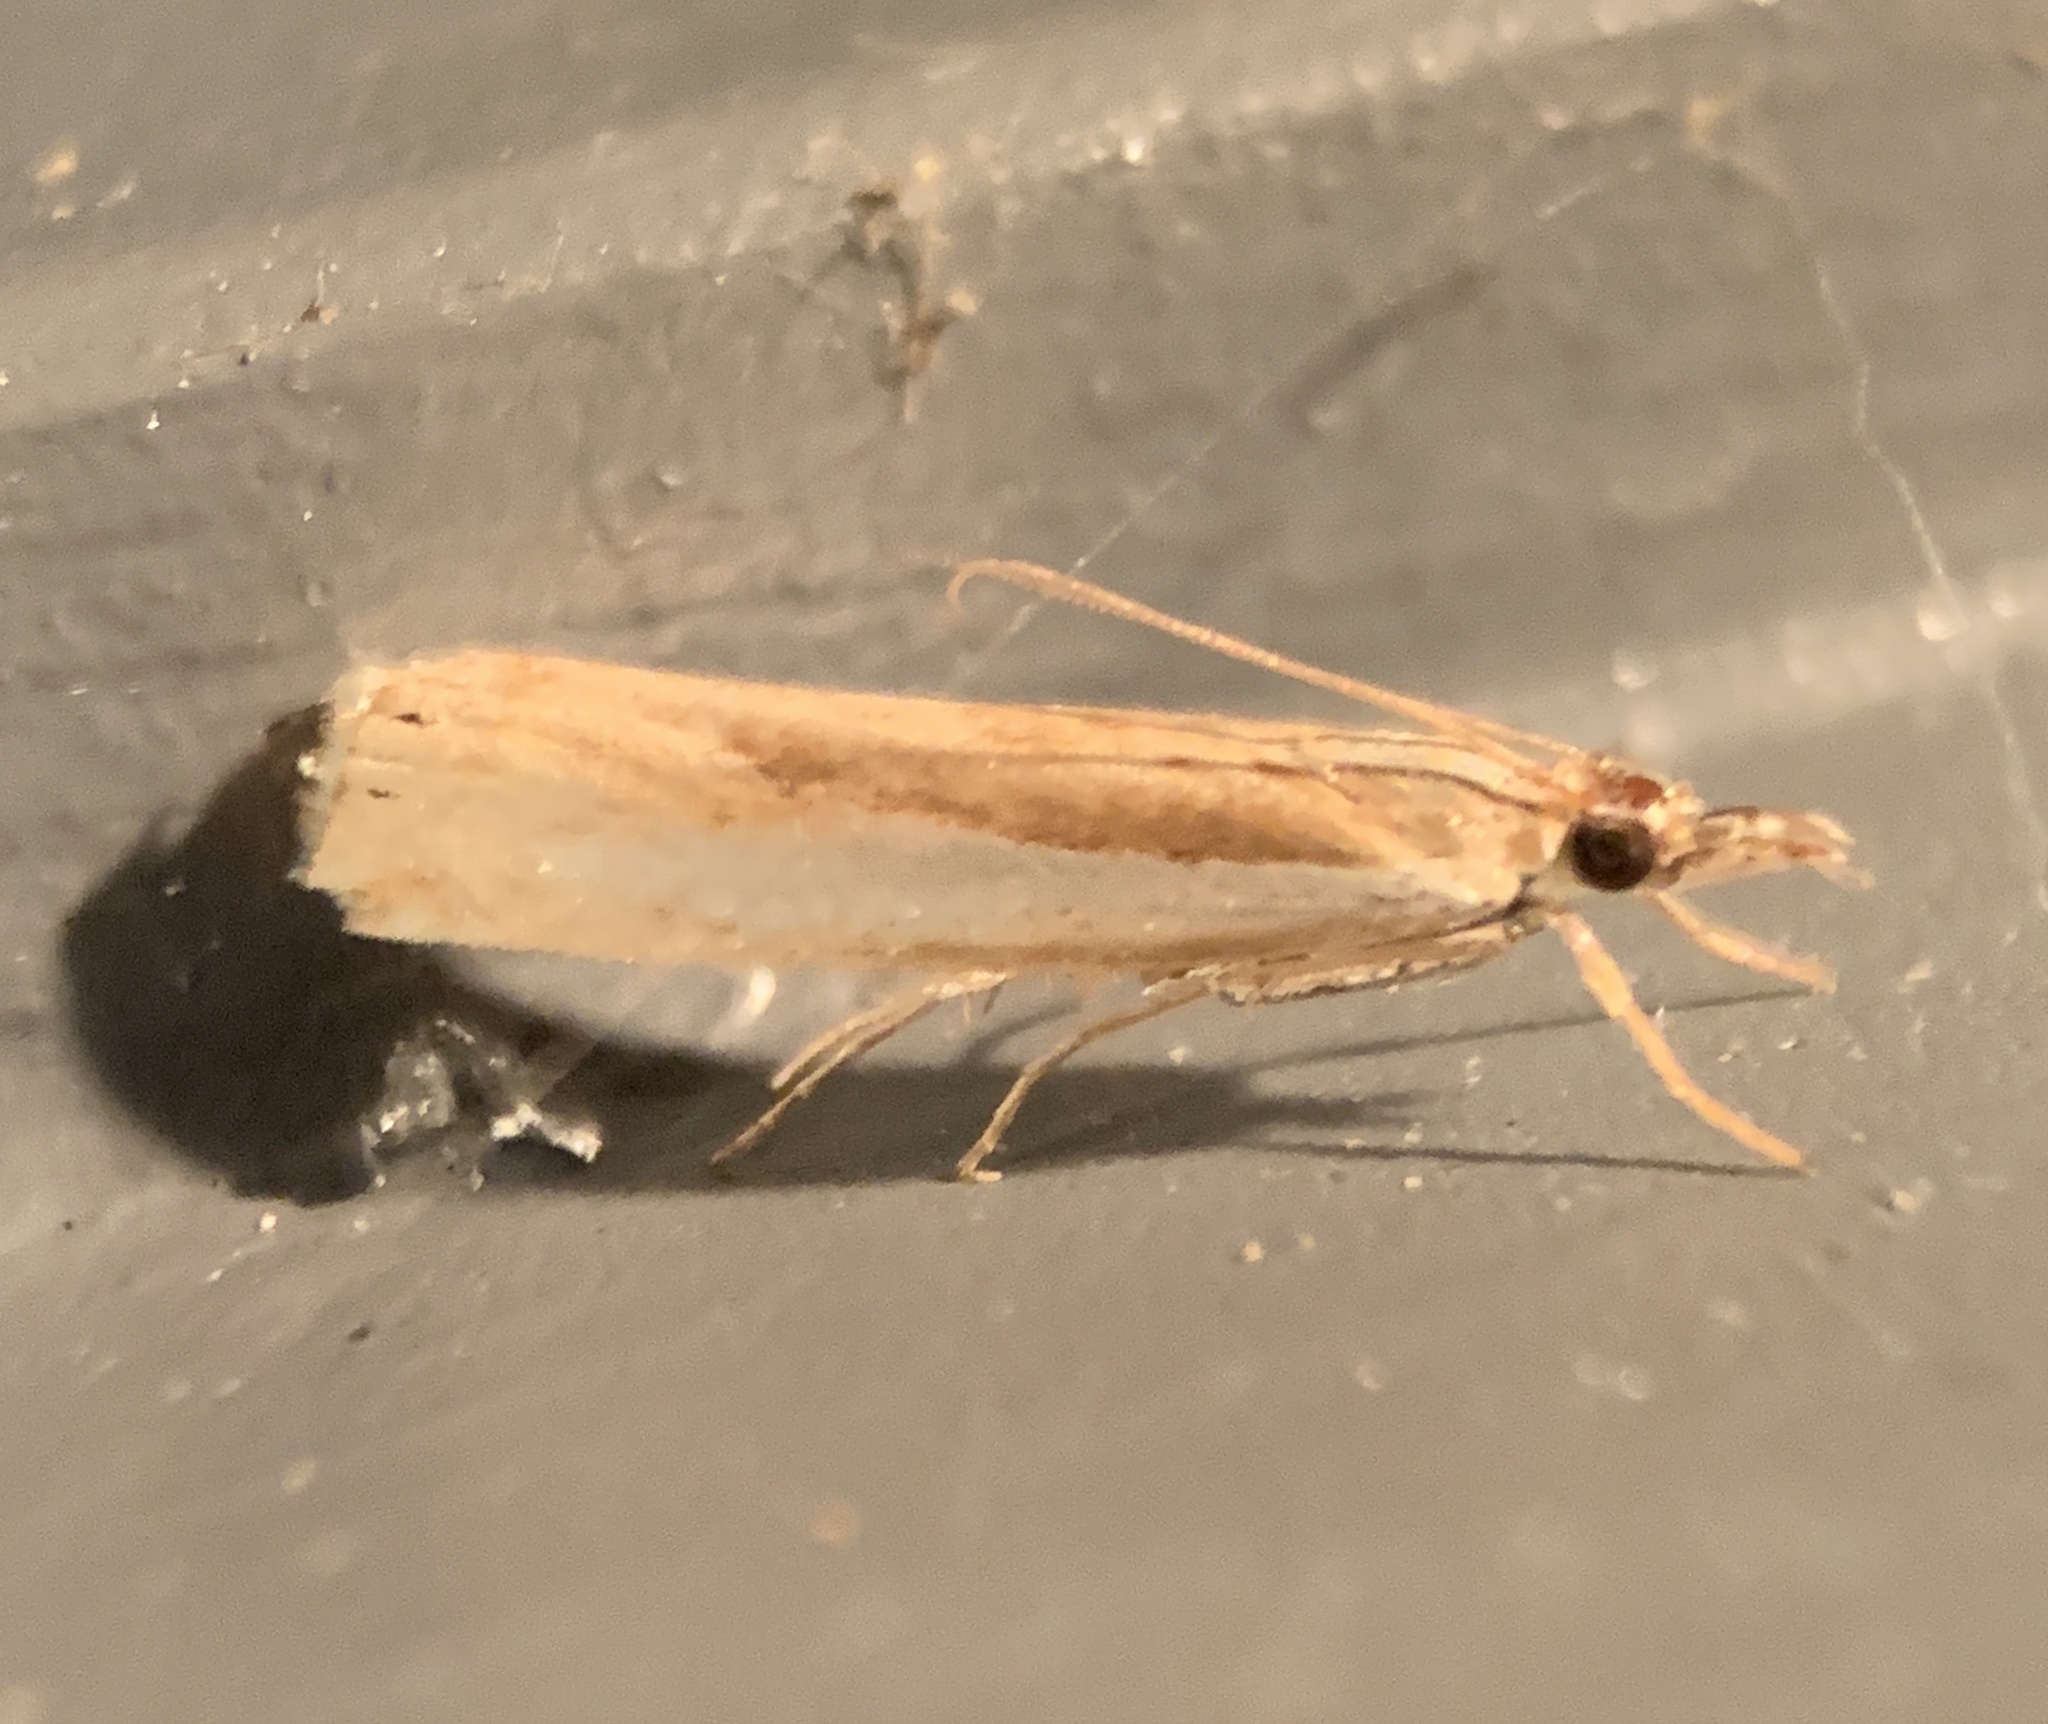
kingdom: Animalia
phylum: Arthropoda
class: Insecta
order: Lepidoptera
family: Crambidae
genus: Crambus
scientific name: Crambus praefectellus
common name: Common grass-veneer
